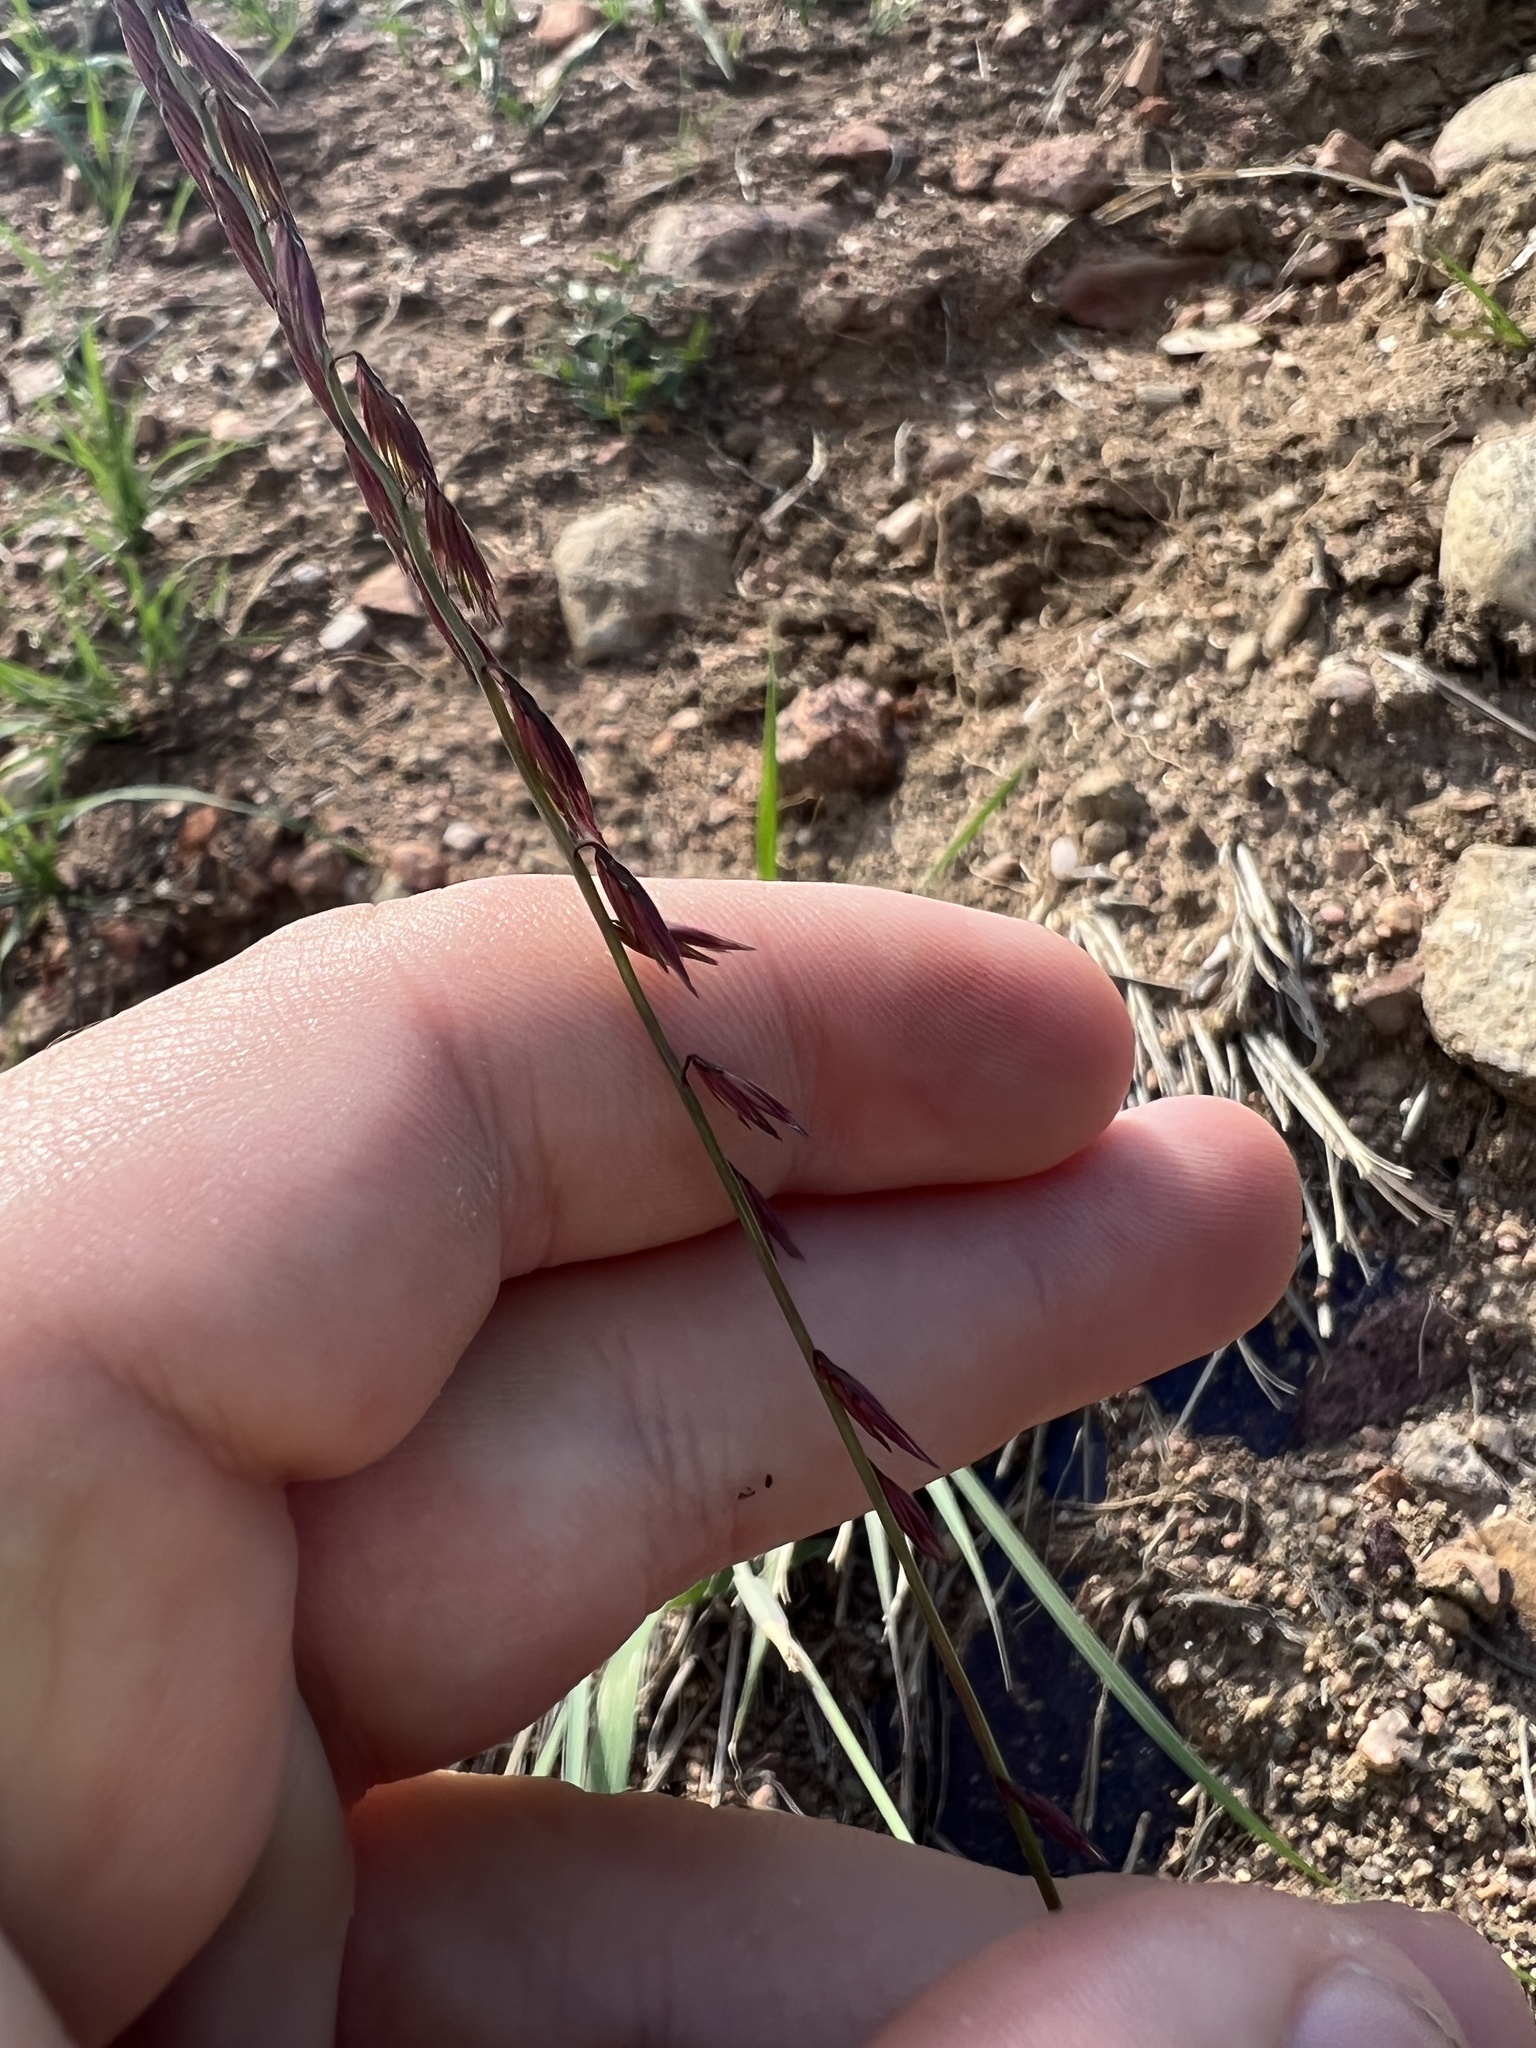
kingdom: Plantae
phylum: Tracheophyta
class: Liliopsida
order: Poales
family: Poaceae
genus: Bouteloua
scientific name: Bouteloua curtipendula
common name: Side-oats grama
